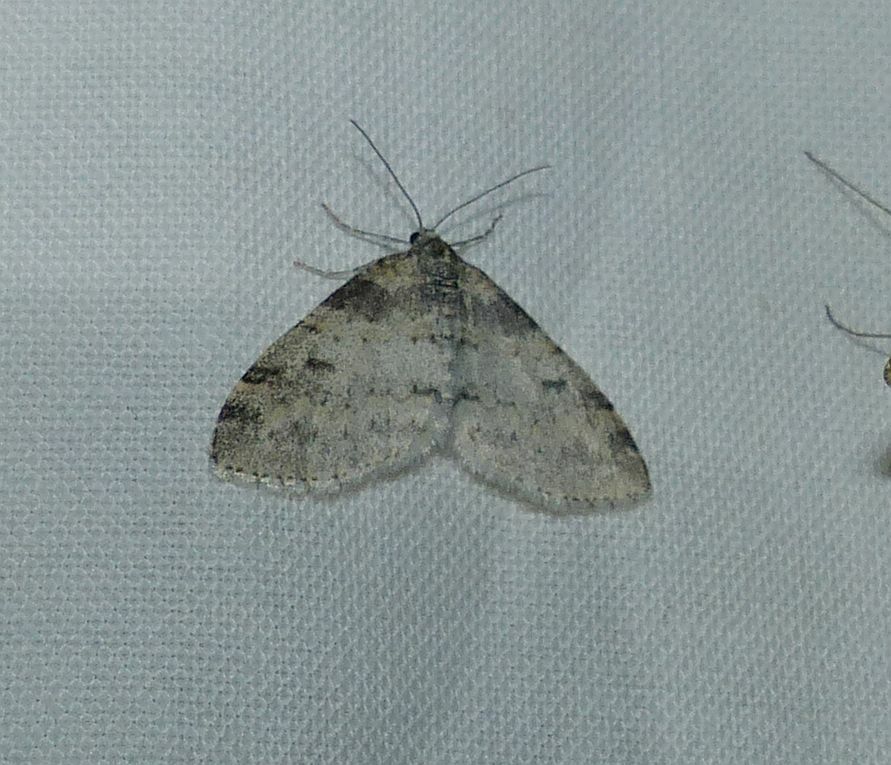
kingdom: Animalia
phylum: Arthropoda
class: Insecta
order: Lepidoptera
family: Geometridae
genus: Lobophora
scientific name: Lobophora nivigerata
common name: Powdered bigwing
